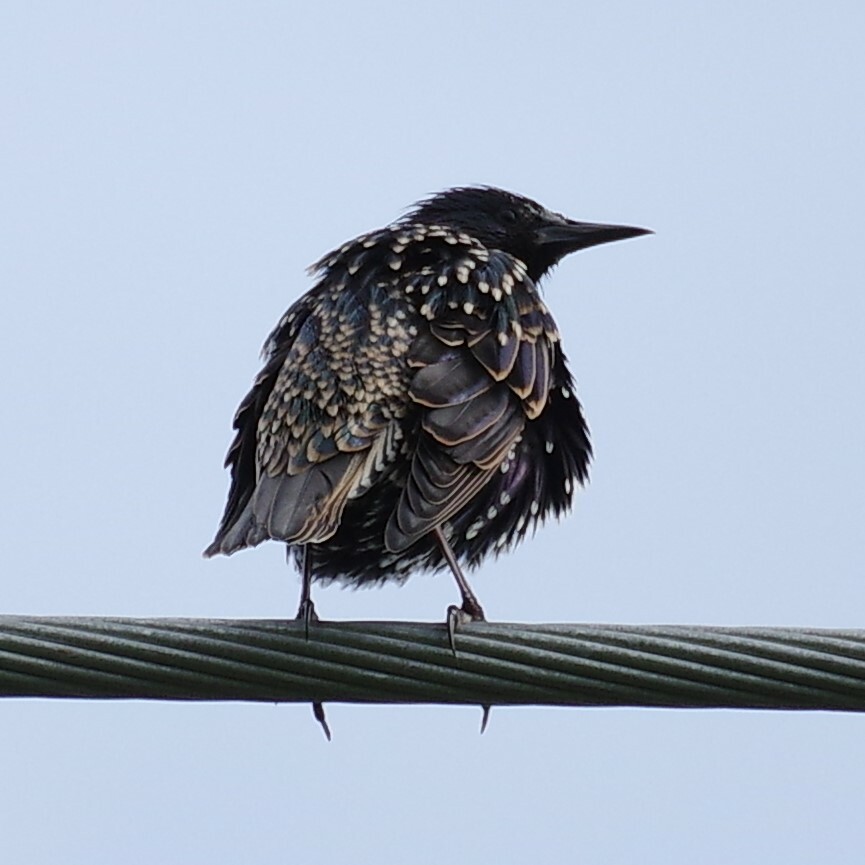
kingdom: Animalia
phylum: Chordata
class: Aves
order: Passeriformes
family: Sturnidae
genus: Sturnus
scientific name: Sturnus vulgaris
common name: Common starling
